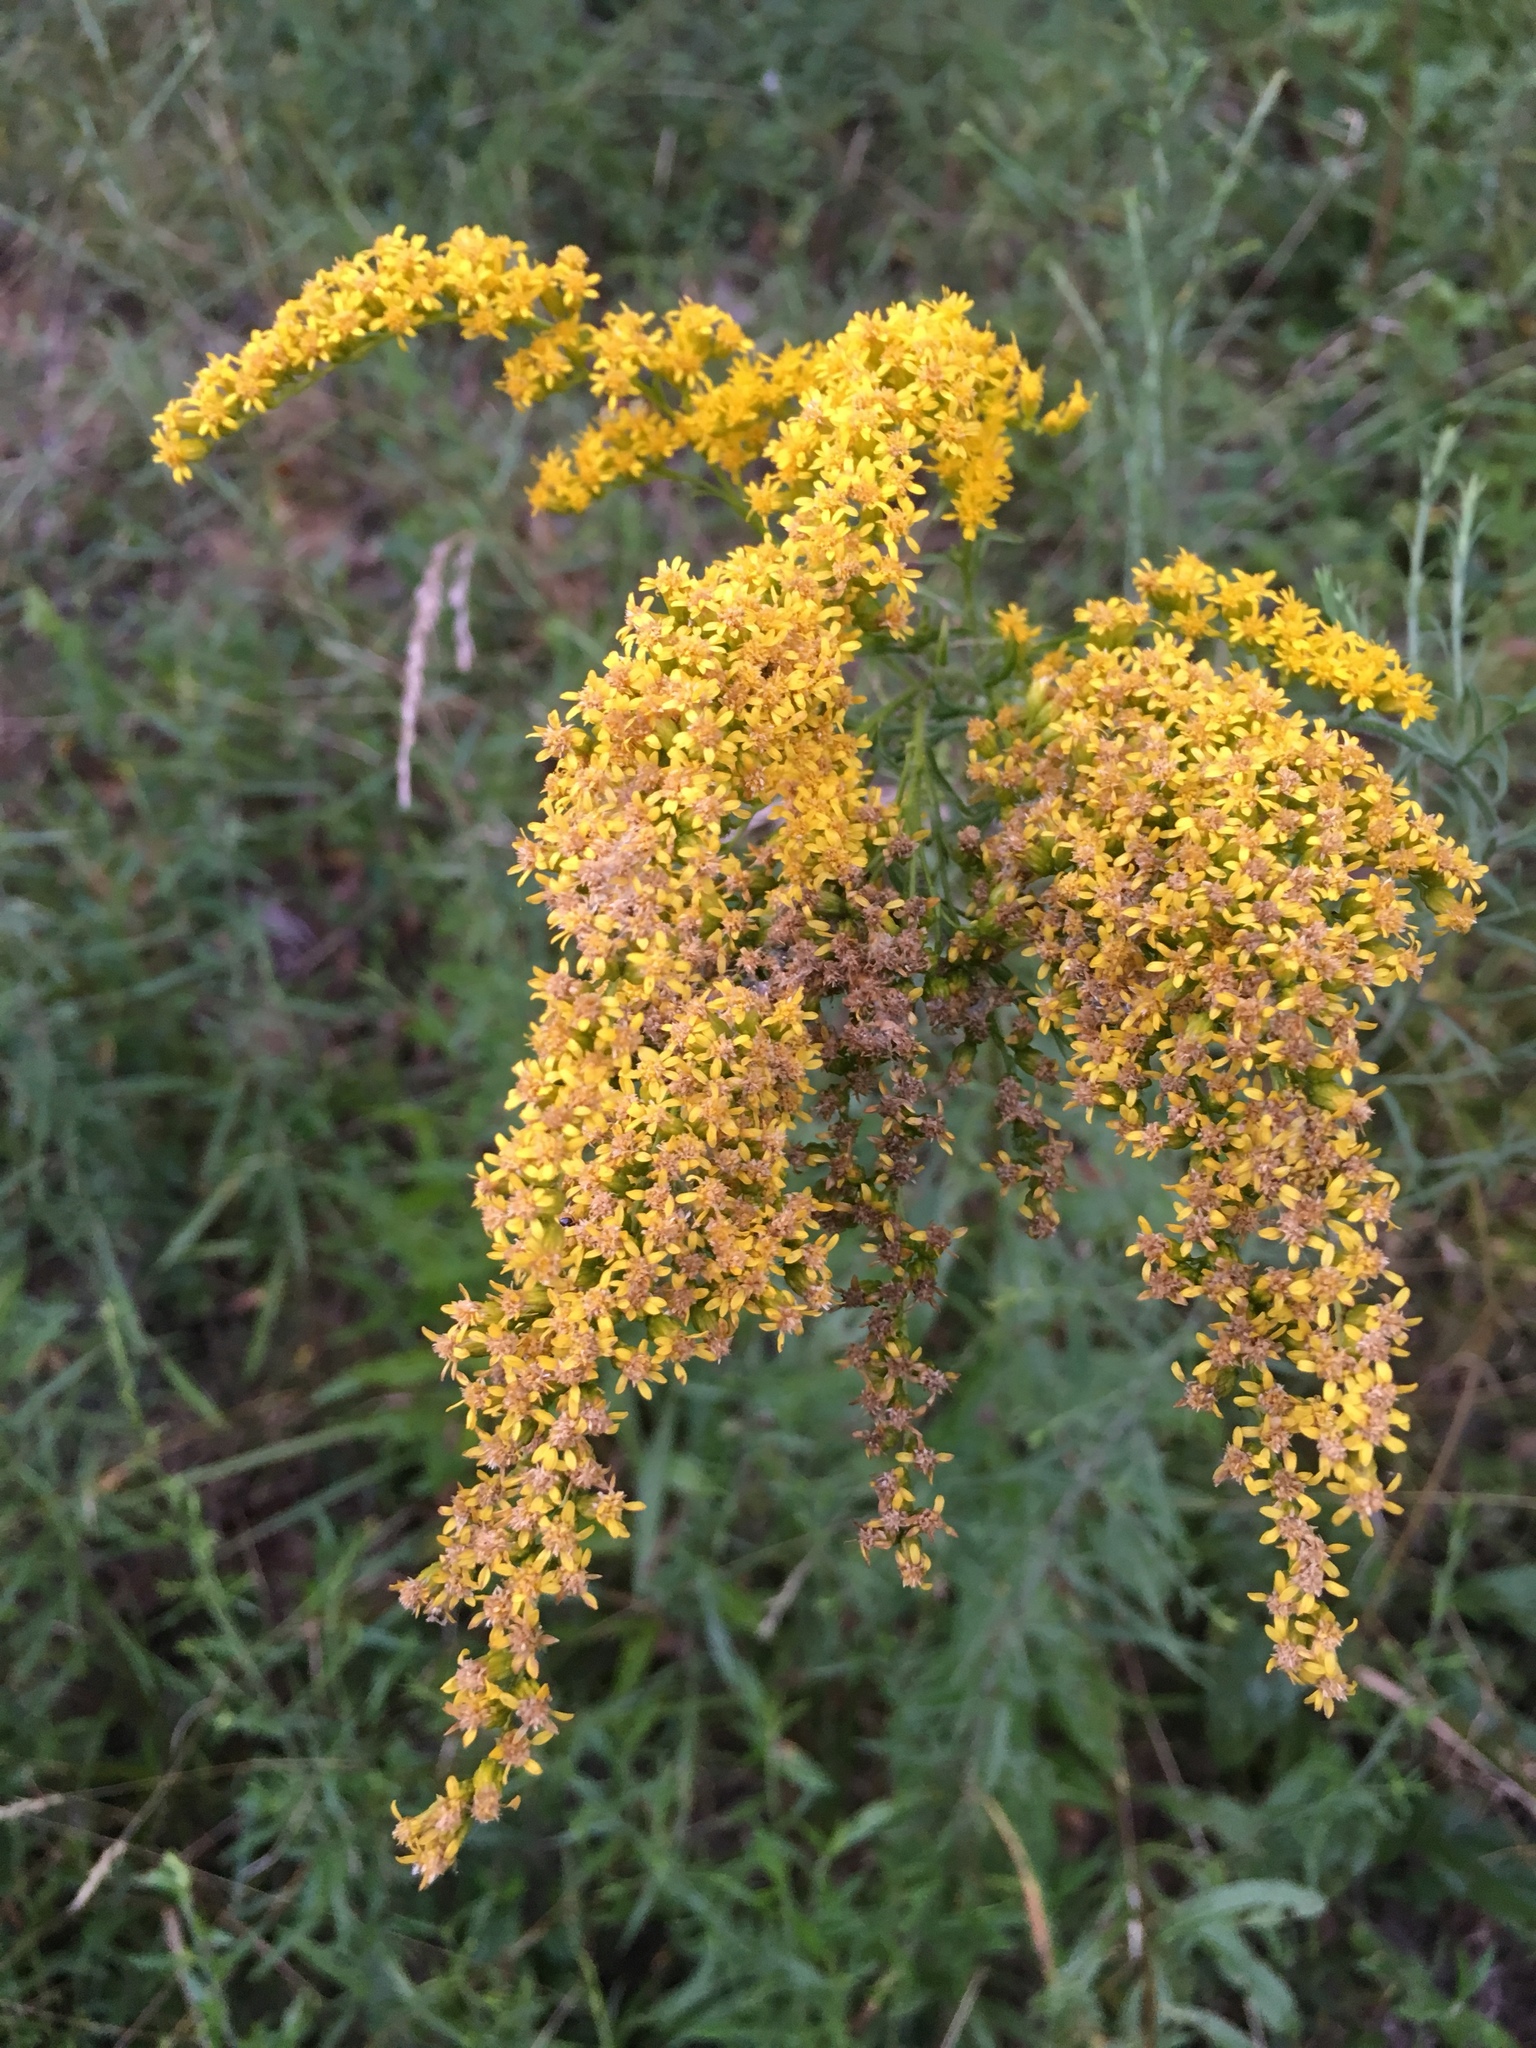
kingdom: Plantae
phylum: Tracheophyta
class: Magnoliopsida
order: Asterales
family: Asteraceae
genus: Solidago
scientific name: Solidago canadensis
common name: Canada goldenrod
